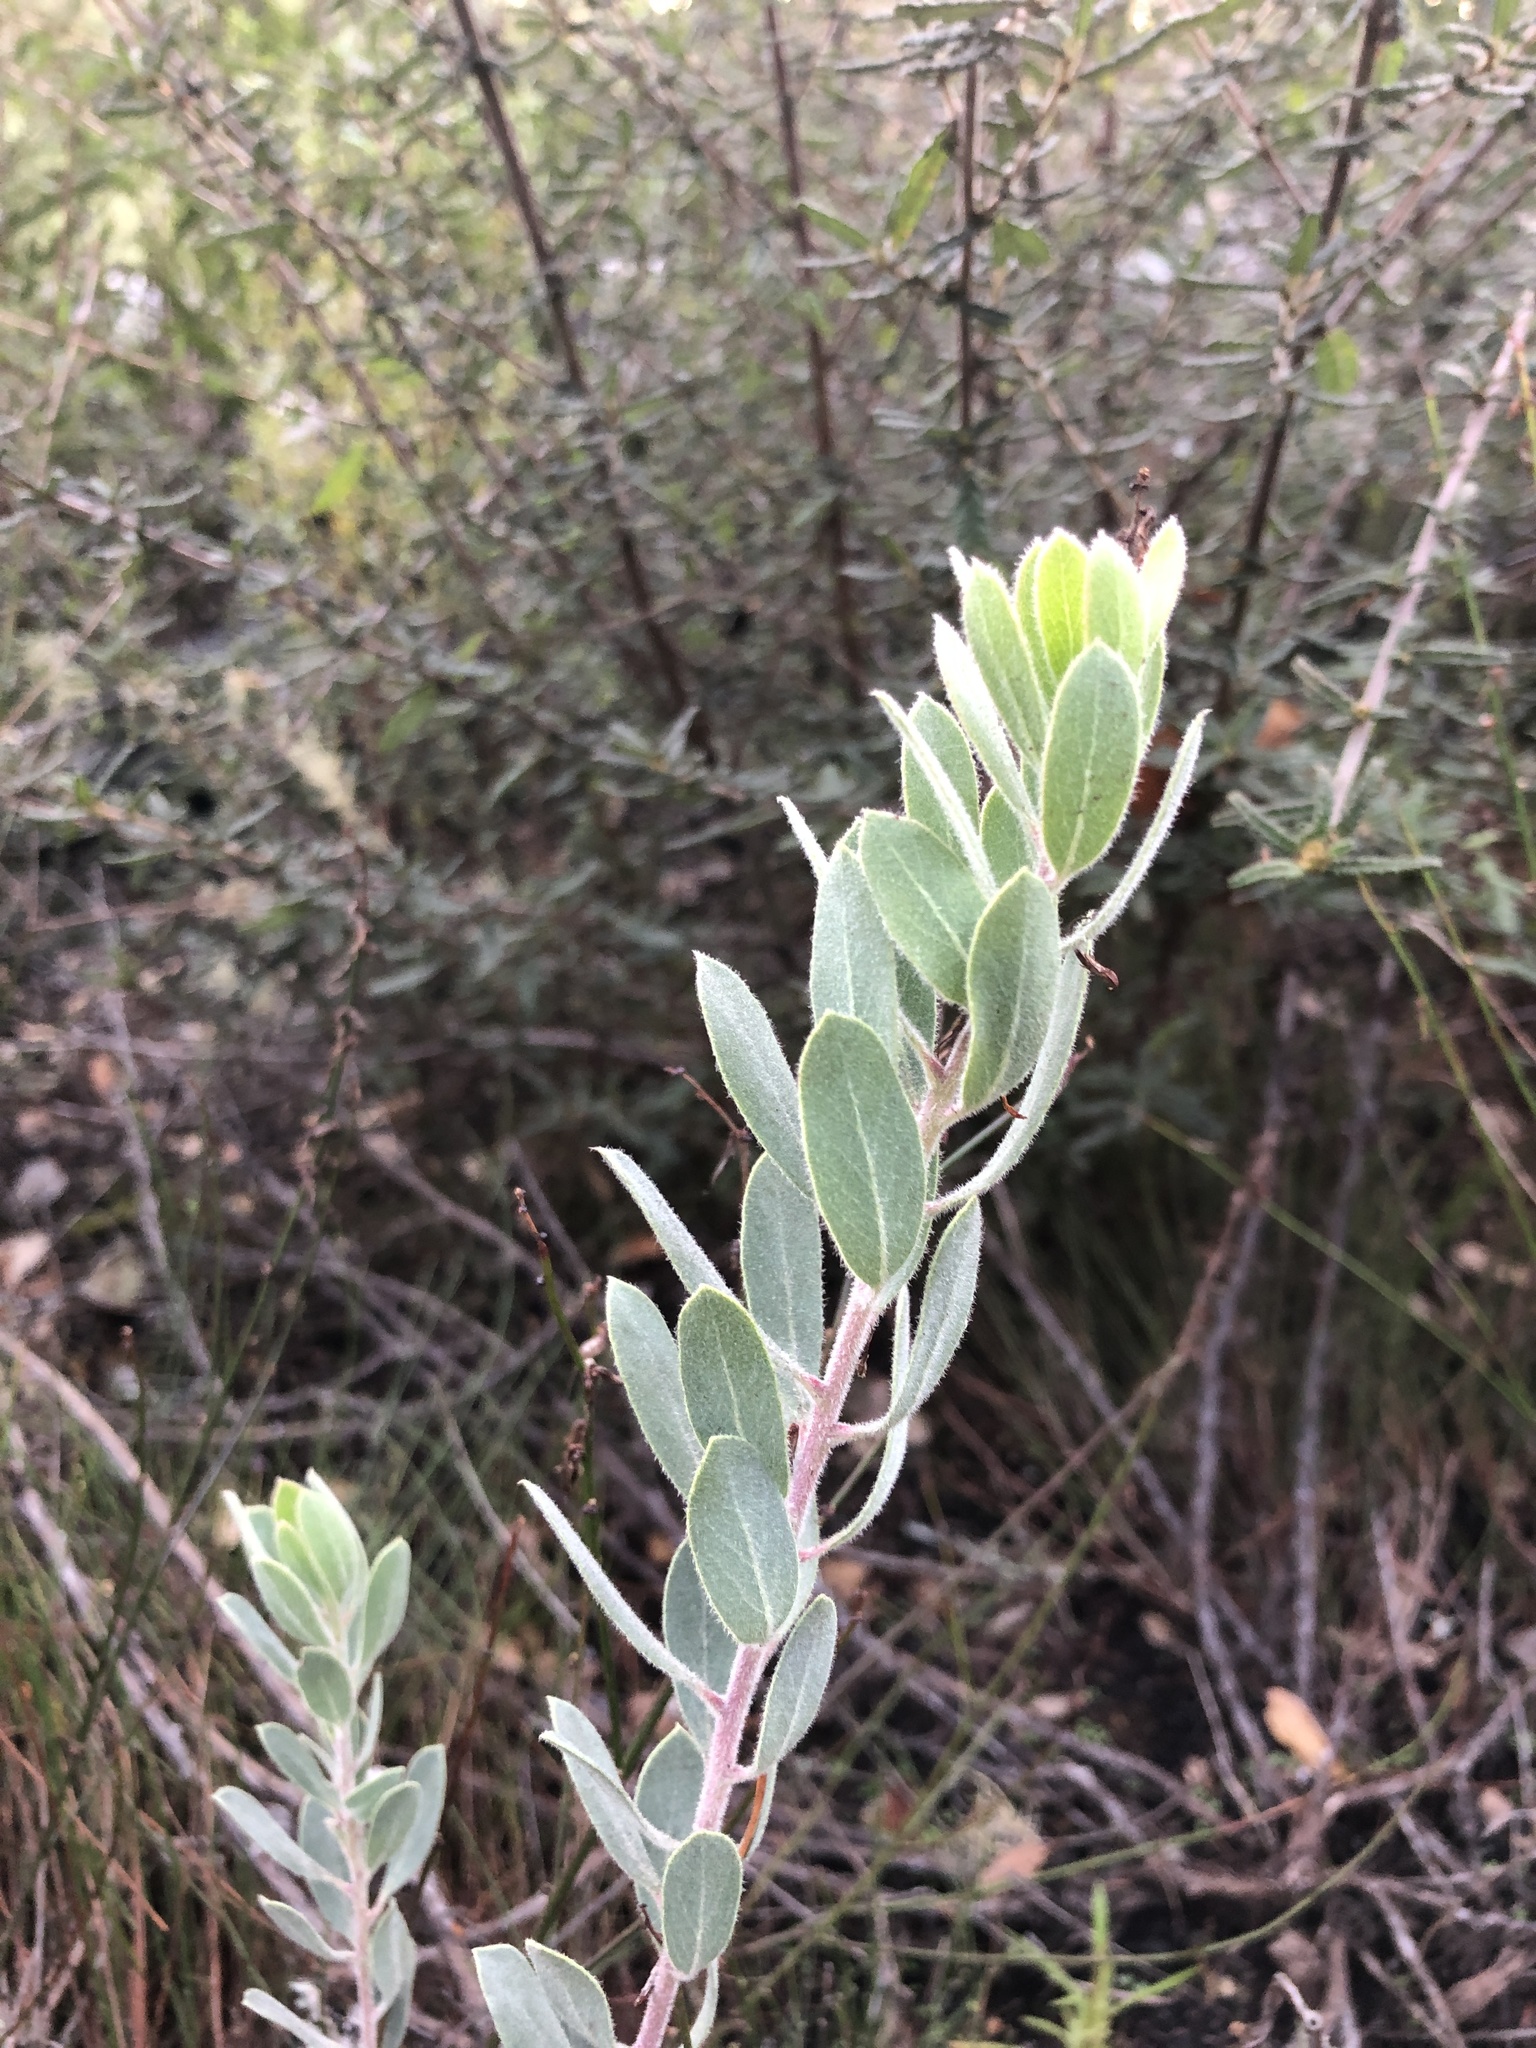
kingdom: Plantae
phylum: Tracheophyta
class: Magnoliopsida
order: Ericales
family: Ericaceae
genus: Arctostaphylos
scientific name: Arctostaphylos silvicola
